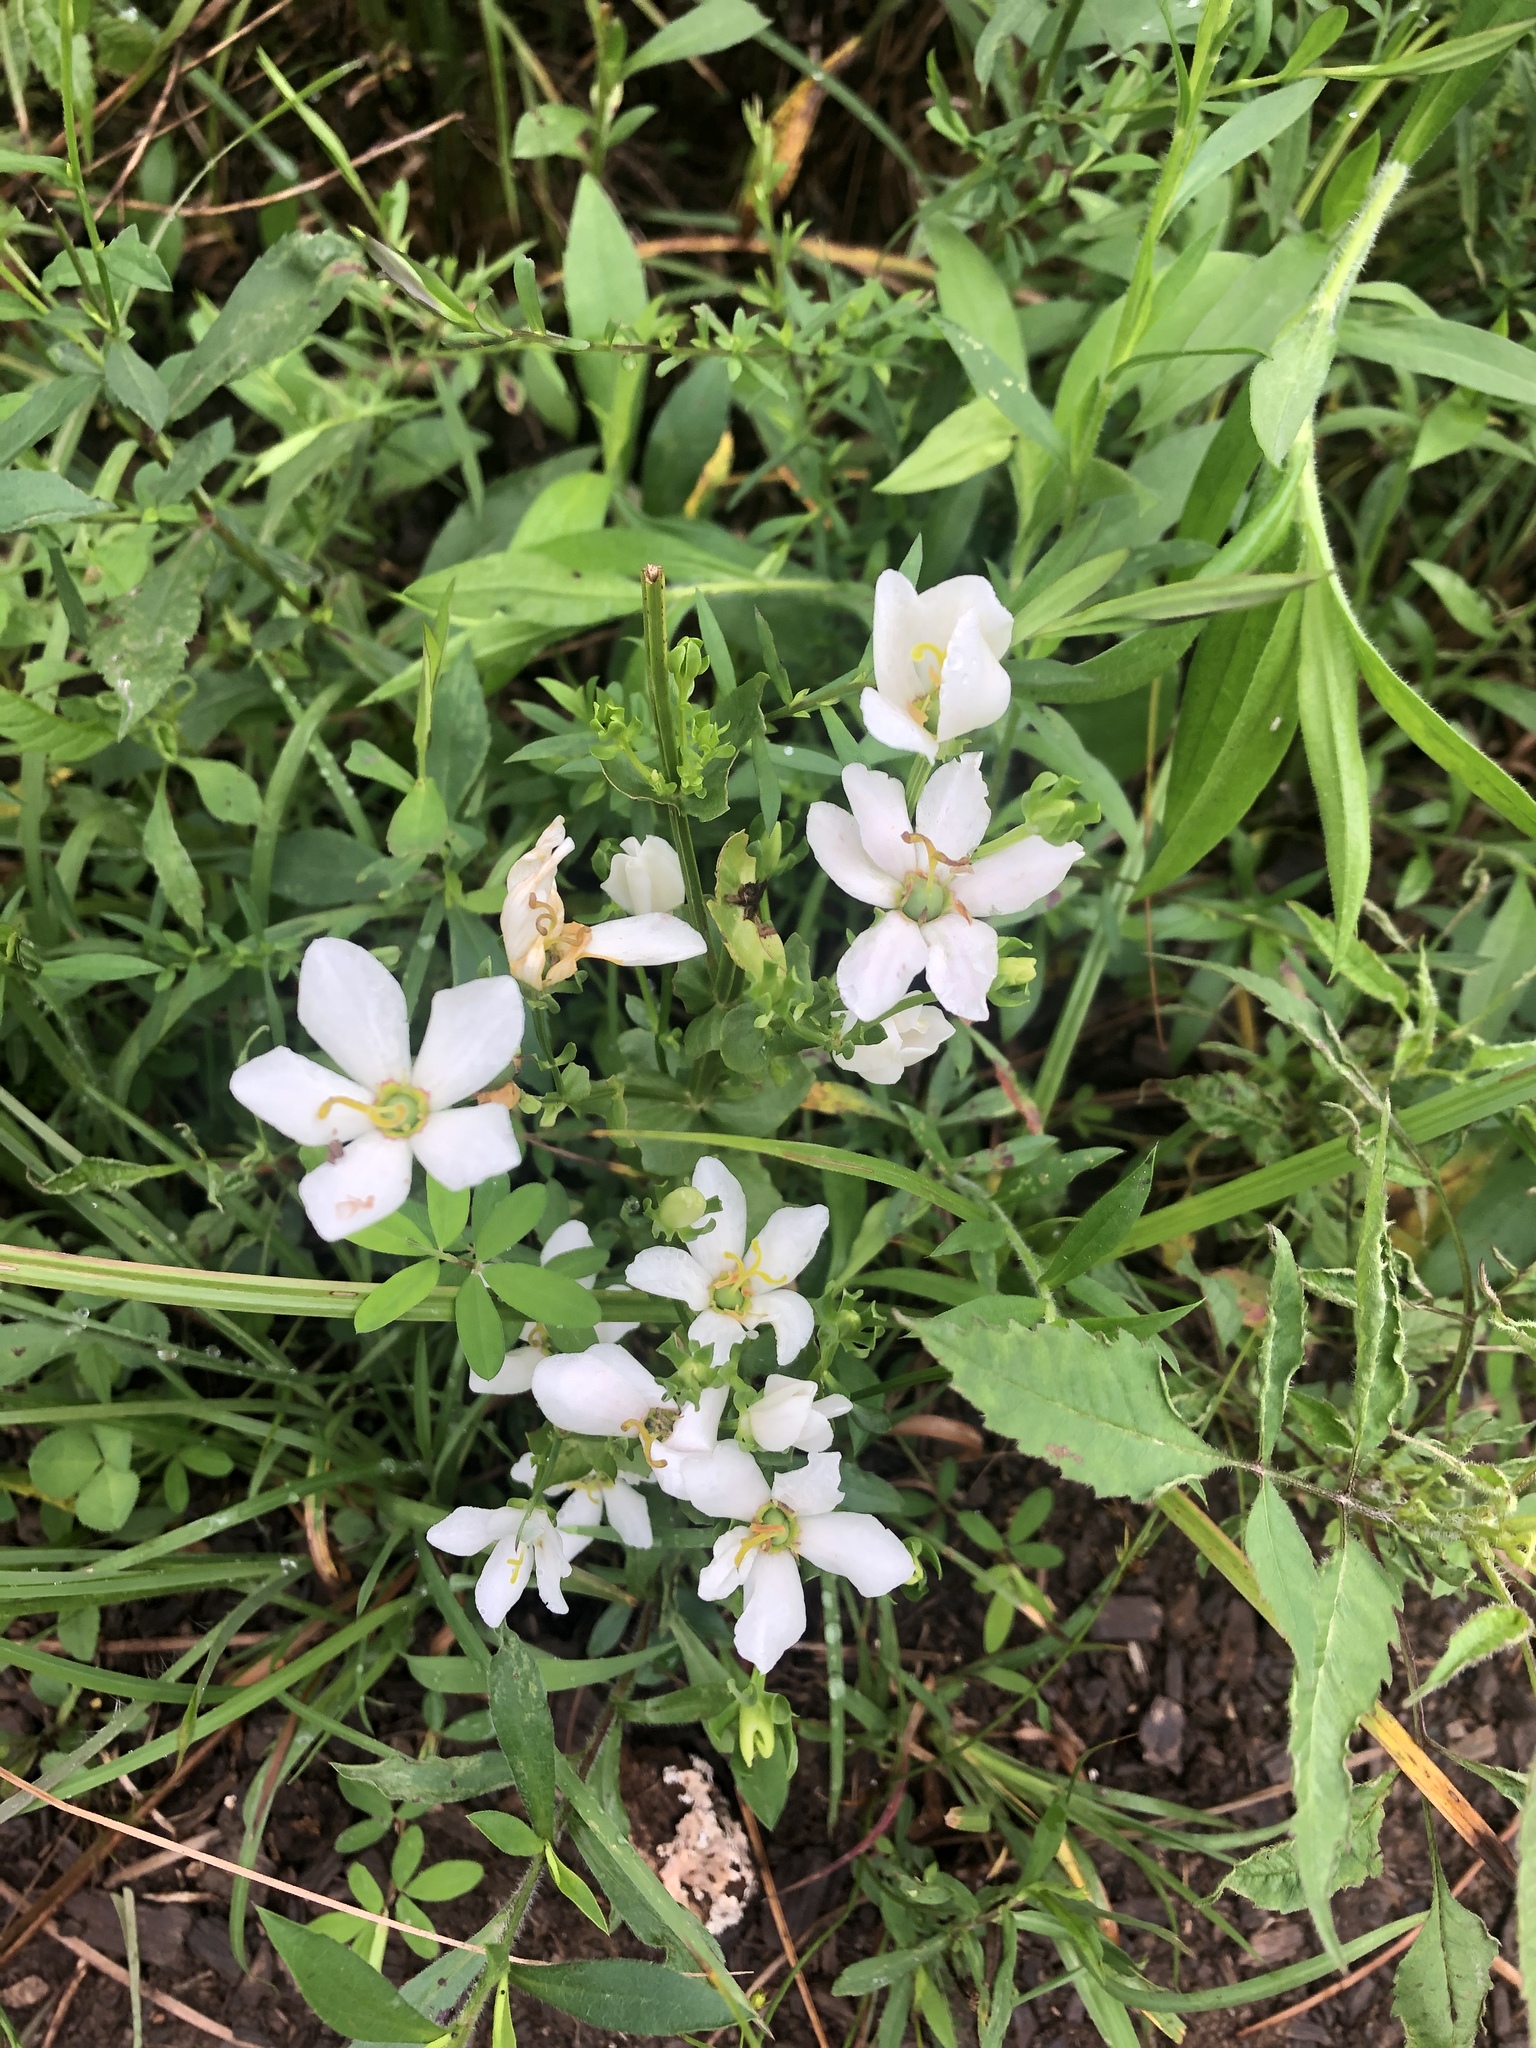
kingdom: Plantae
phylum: Tracheophyta
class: Magnoliopsida
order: Gentianales
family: Gentianaceae
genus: Sabatia
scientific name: Sabatia angularis
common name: Rose-pink
